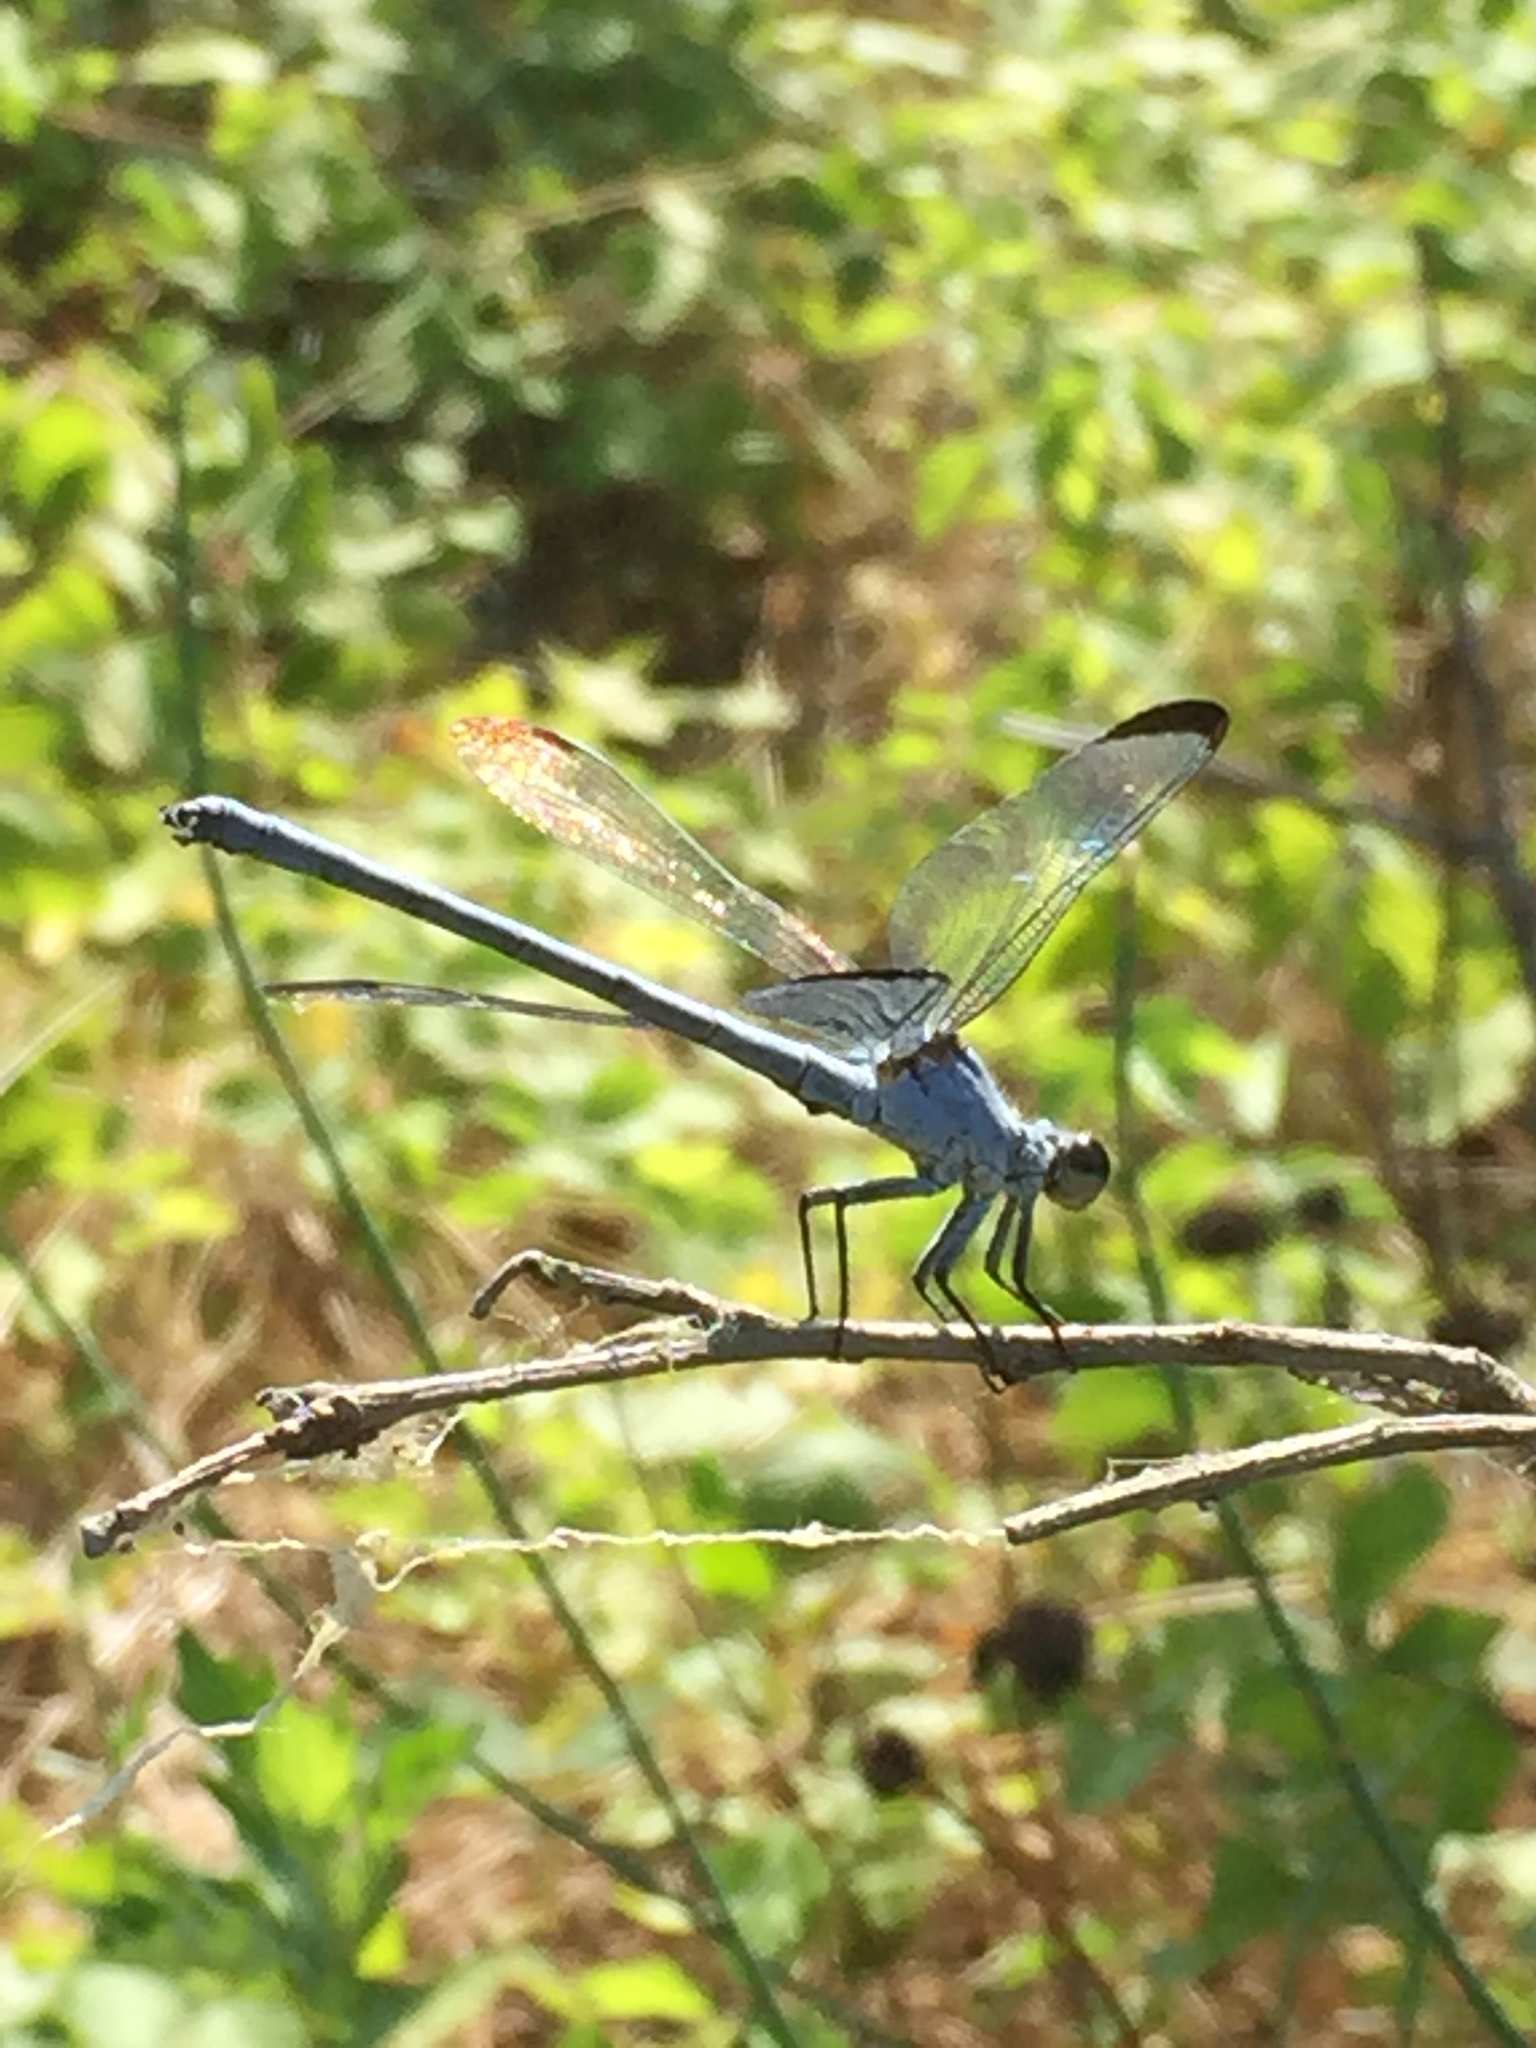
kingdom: Animalia
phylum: Arthropoda
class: Insecta
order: Odonata
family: Euphaeidae
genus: Epallage
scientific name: Epallage fatime
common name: Odalisque
